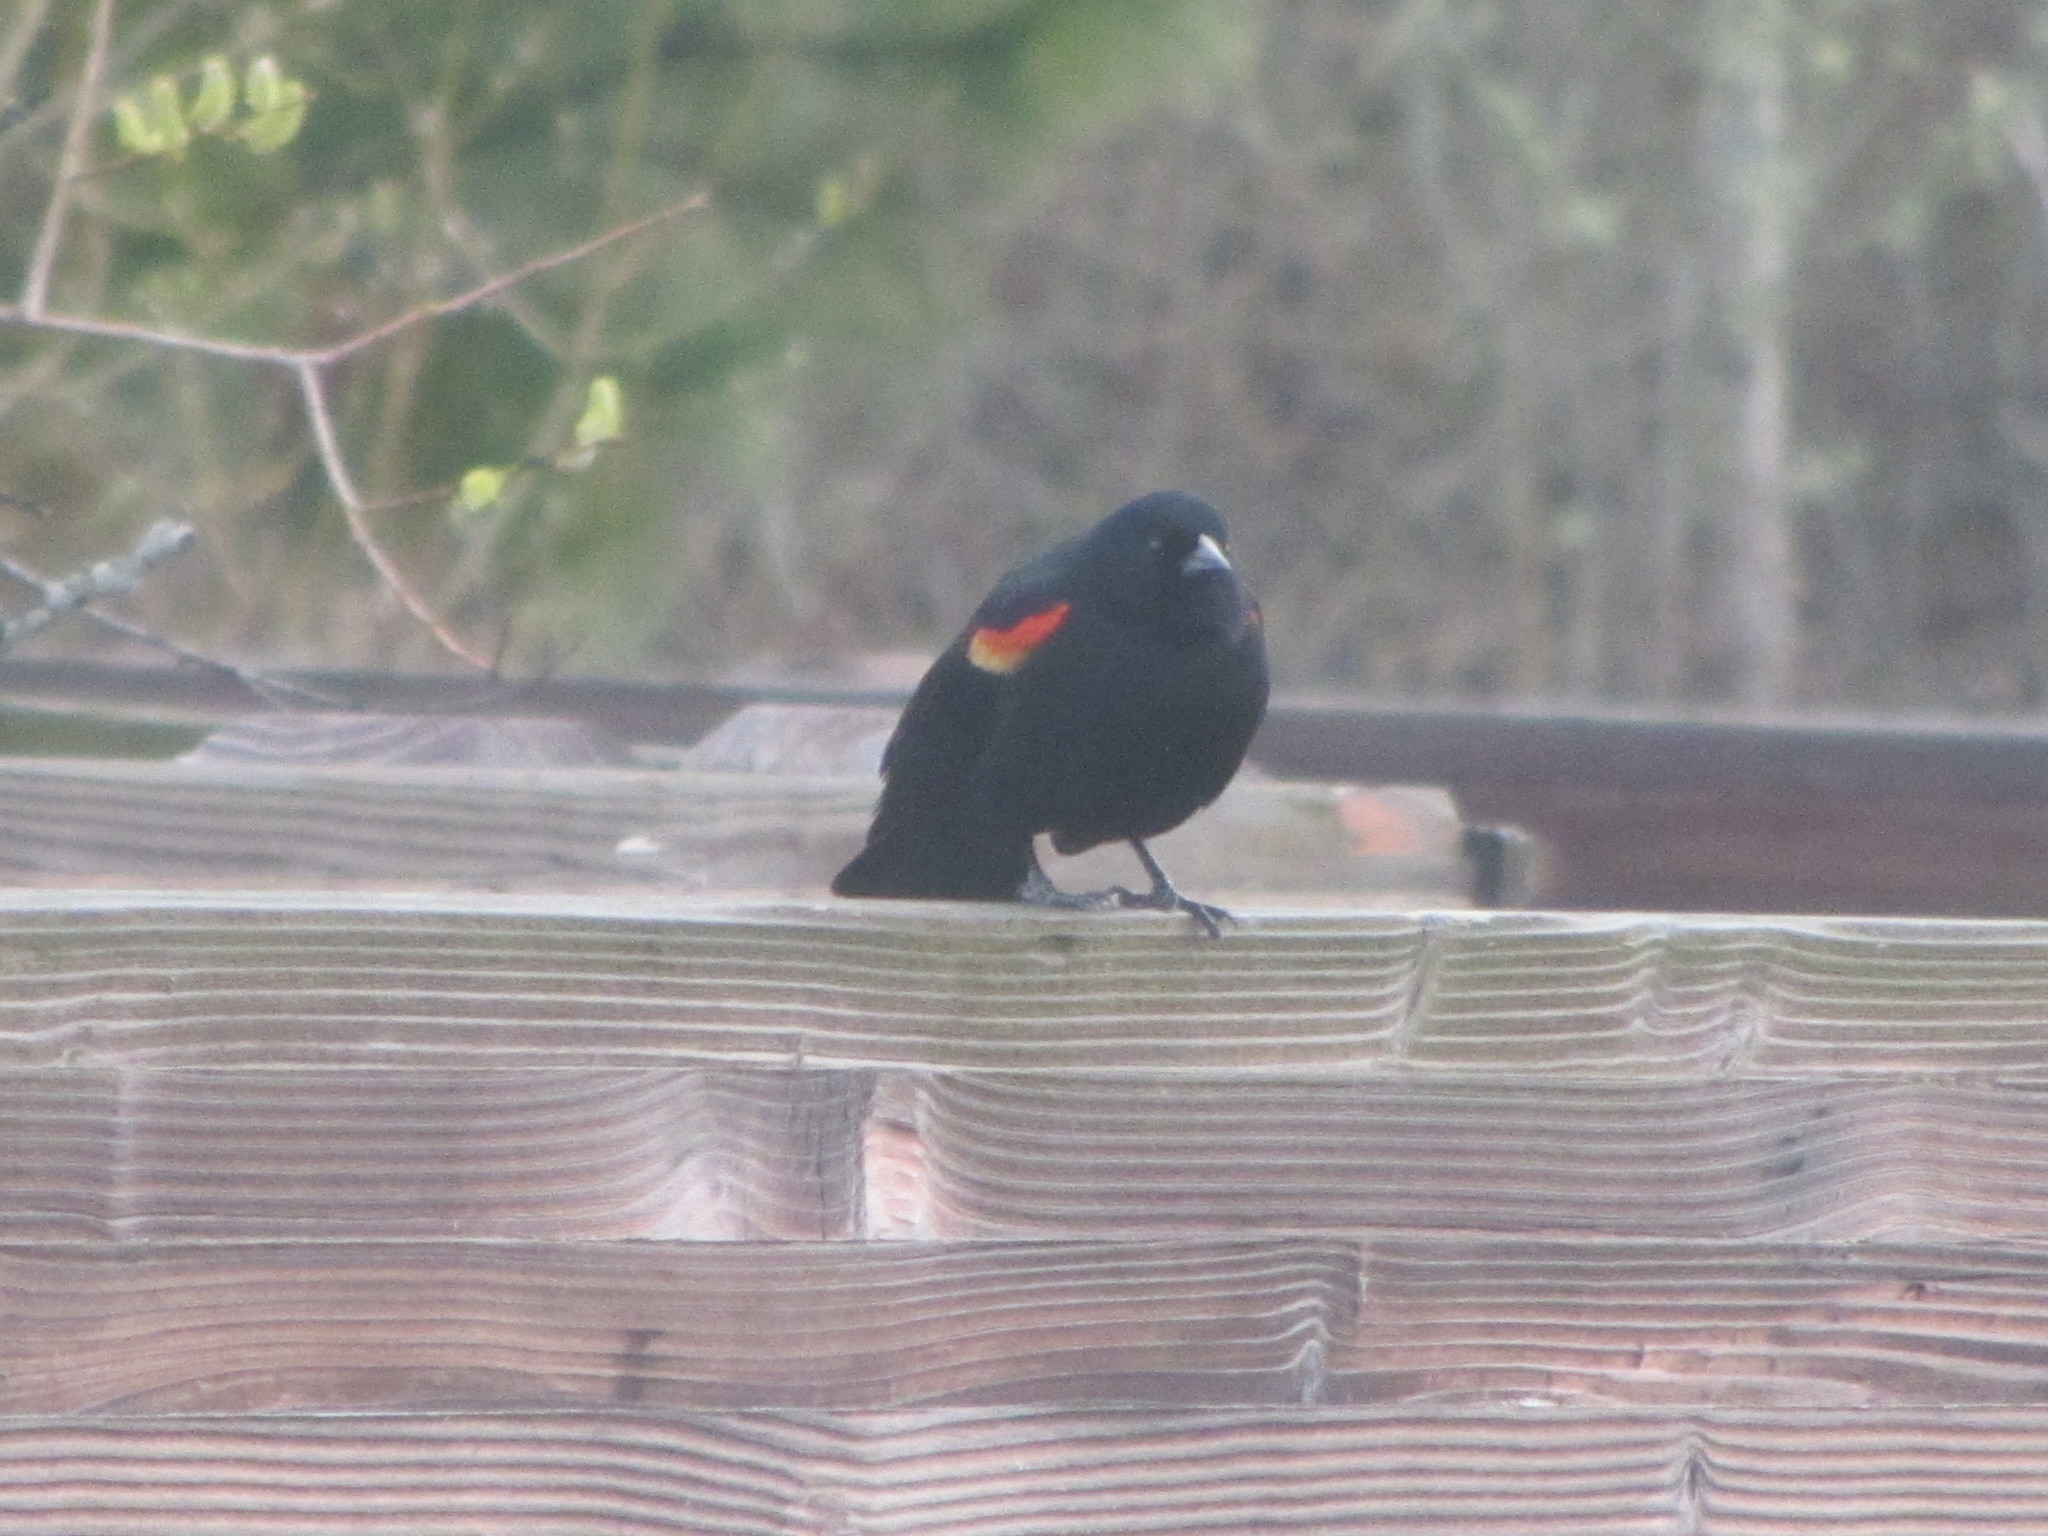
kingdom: Animalia
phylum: Chordata
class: Aves
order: Passeriformes
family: Icteridae
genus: Agelaius
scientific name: Agelaius phoeniceus
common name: Red-winged blackbird
